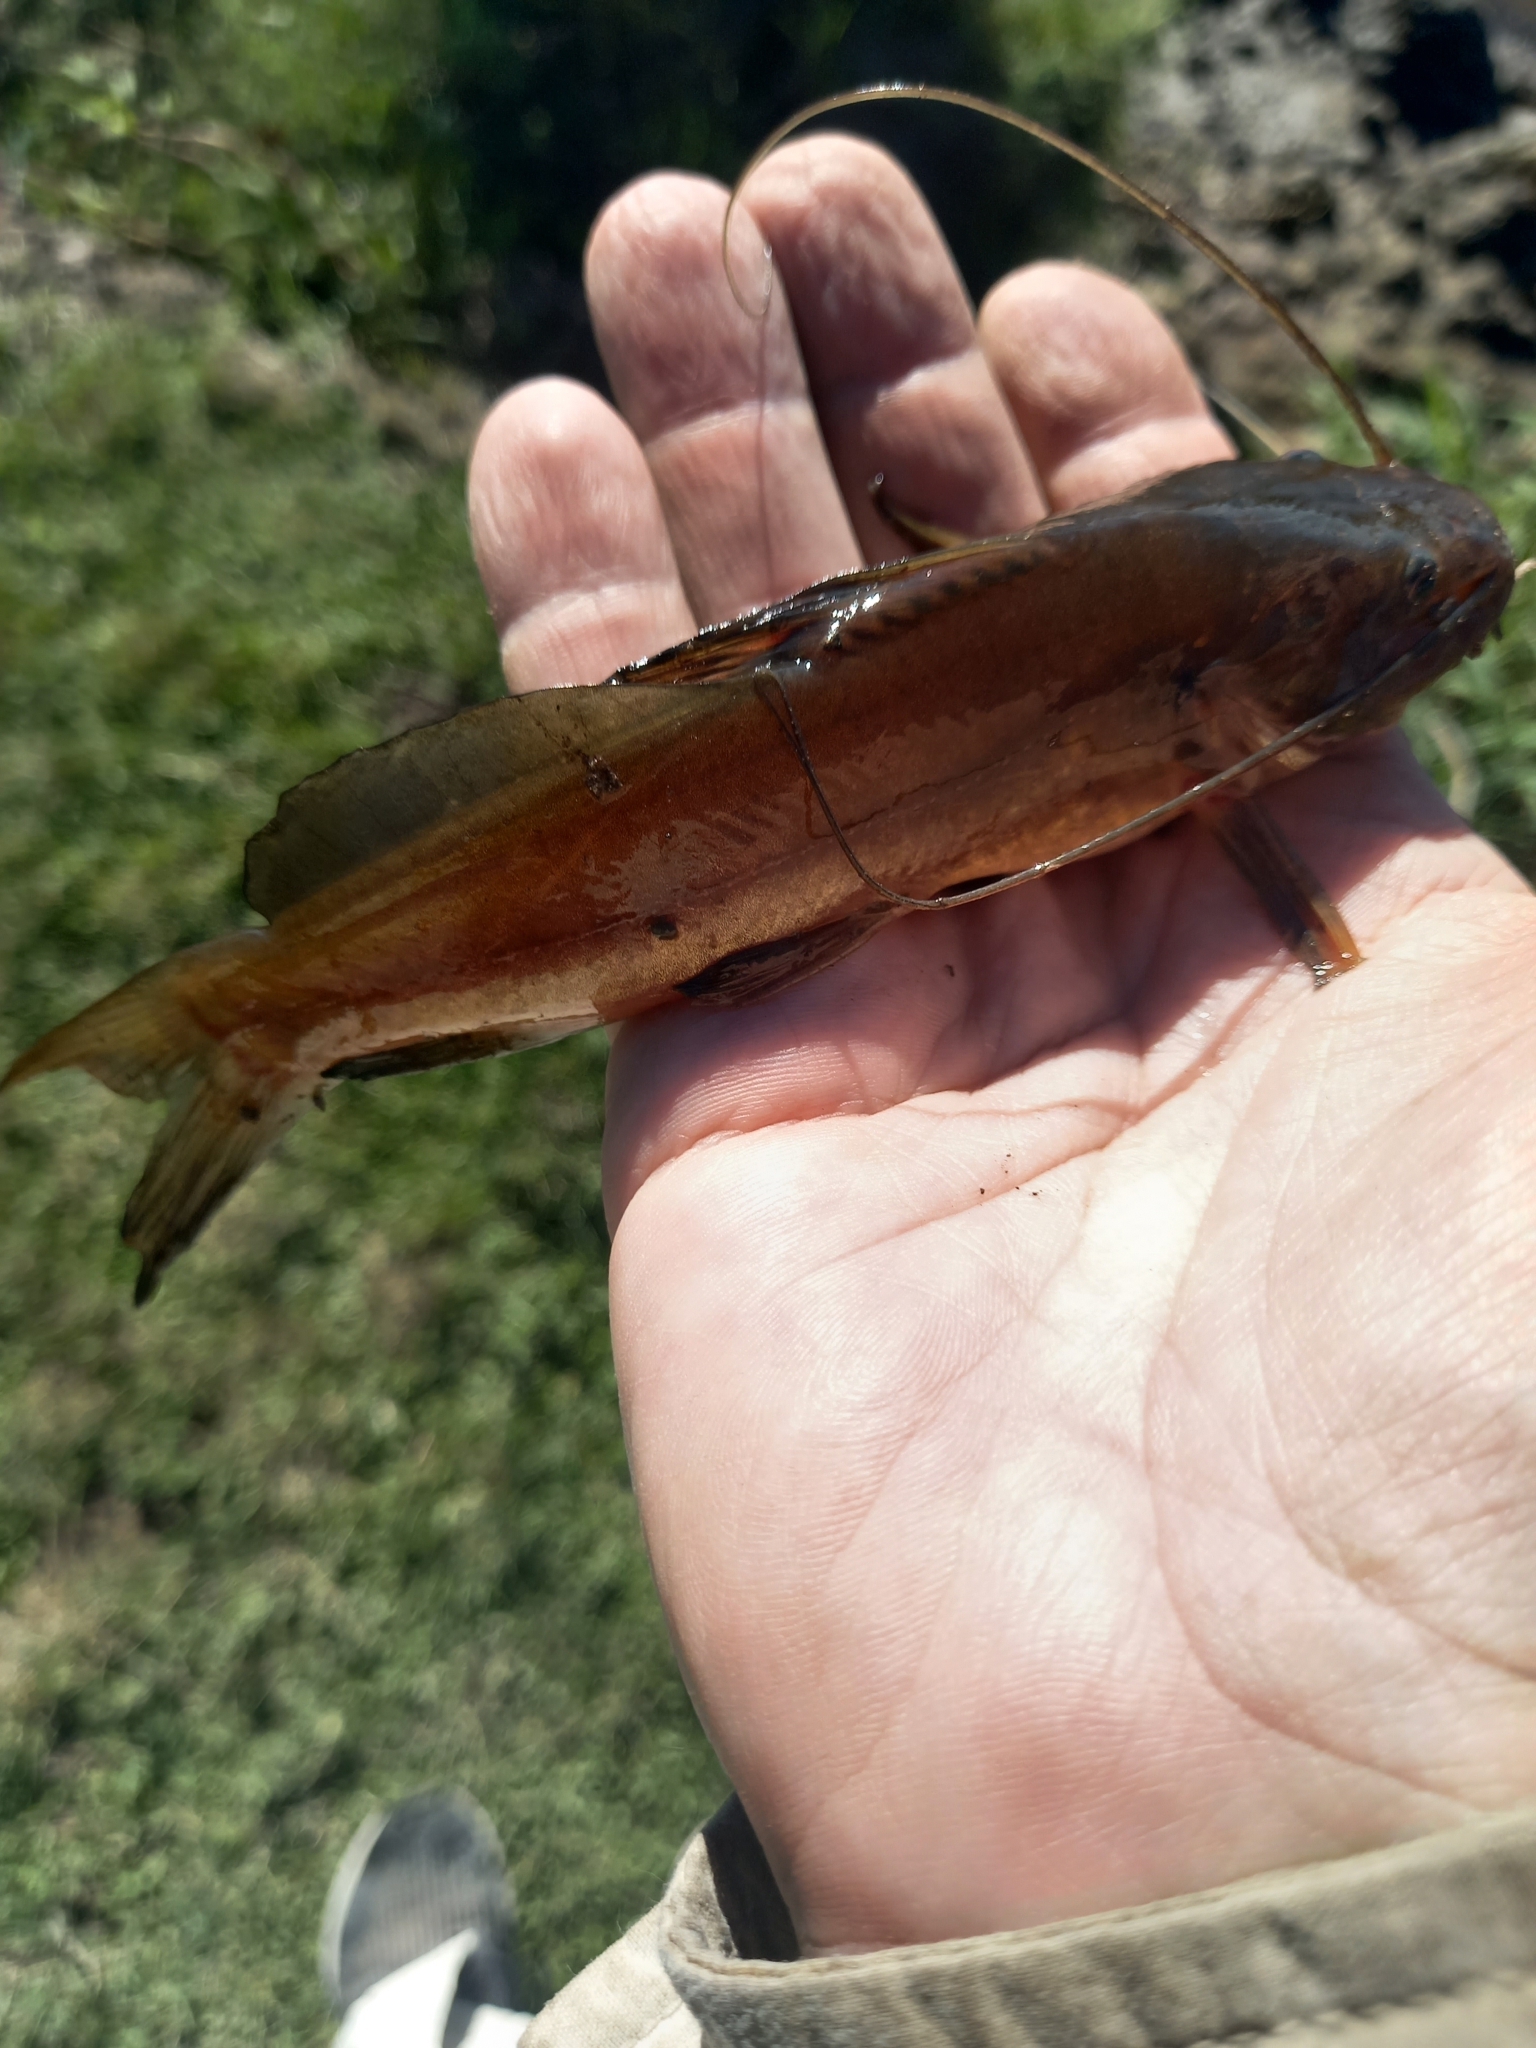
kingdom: Animalia
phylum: Chordata
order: Siluriformes
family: Heptapteridae
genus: Rhamdia
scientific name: Rhamdia quelen
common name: Catfish
